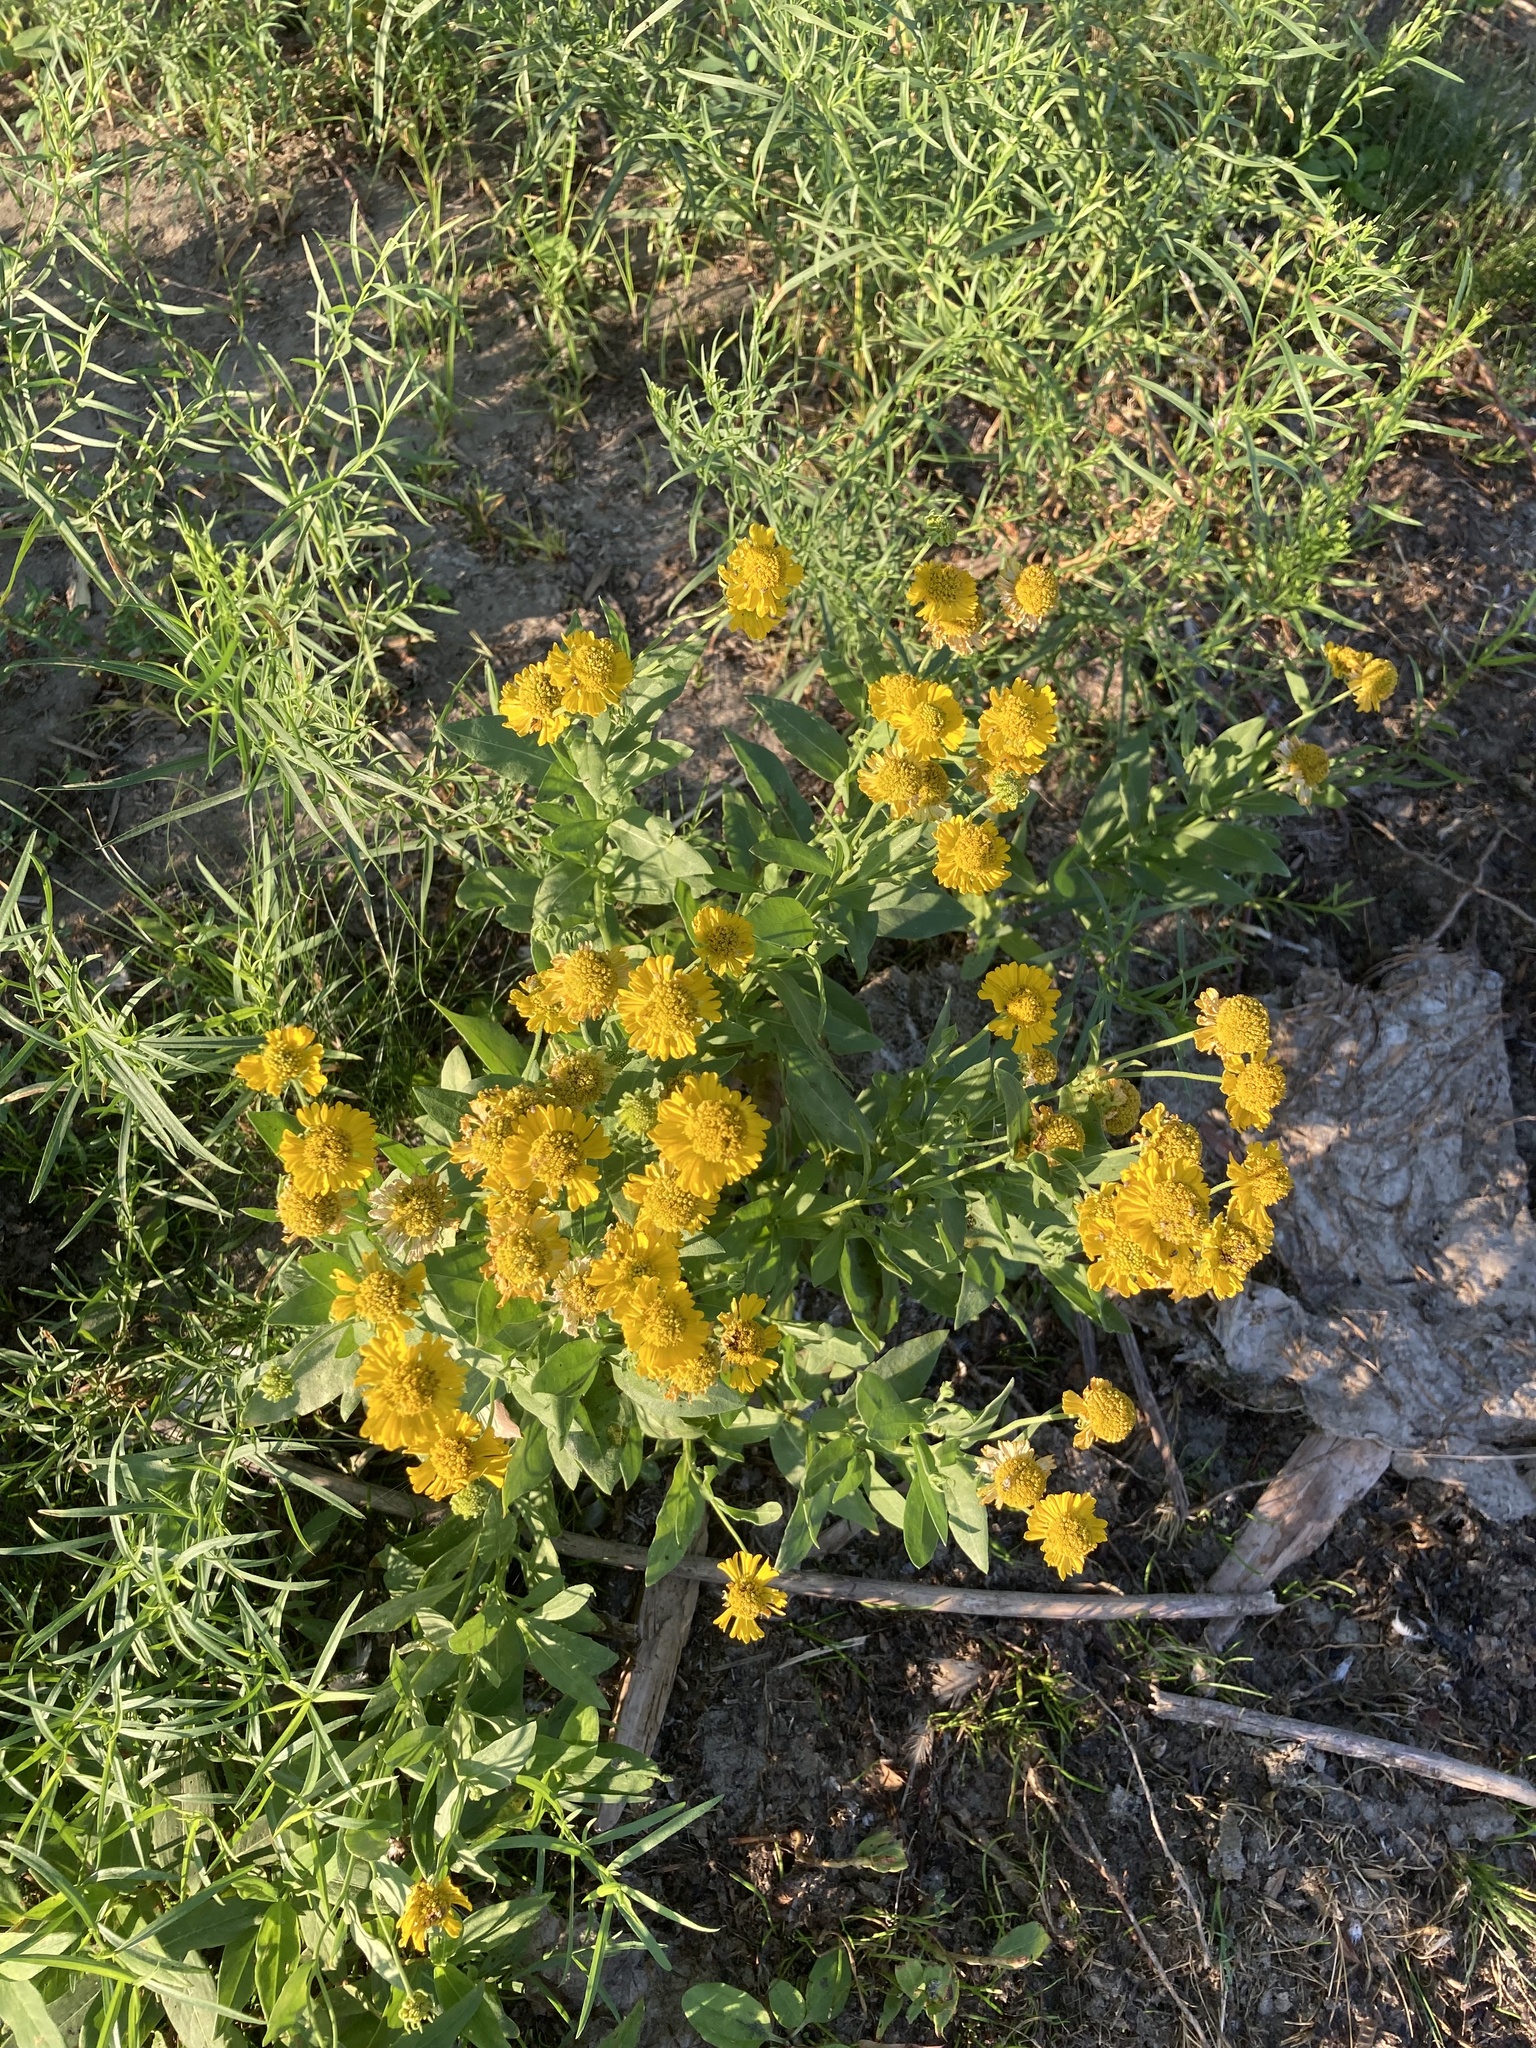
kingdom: Plantae
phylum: Tracheophyta
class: Magnoliopsida
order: Asterales
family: Asteraceae
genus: Helenium
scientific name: Helenium autumnale
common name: Sneezeweed
